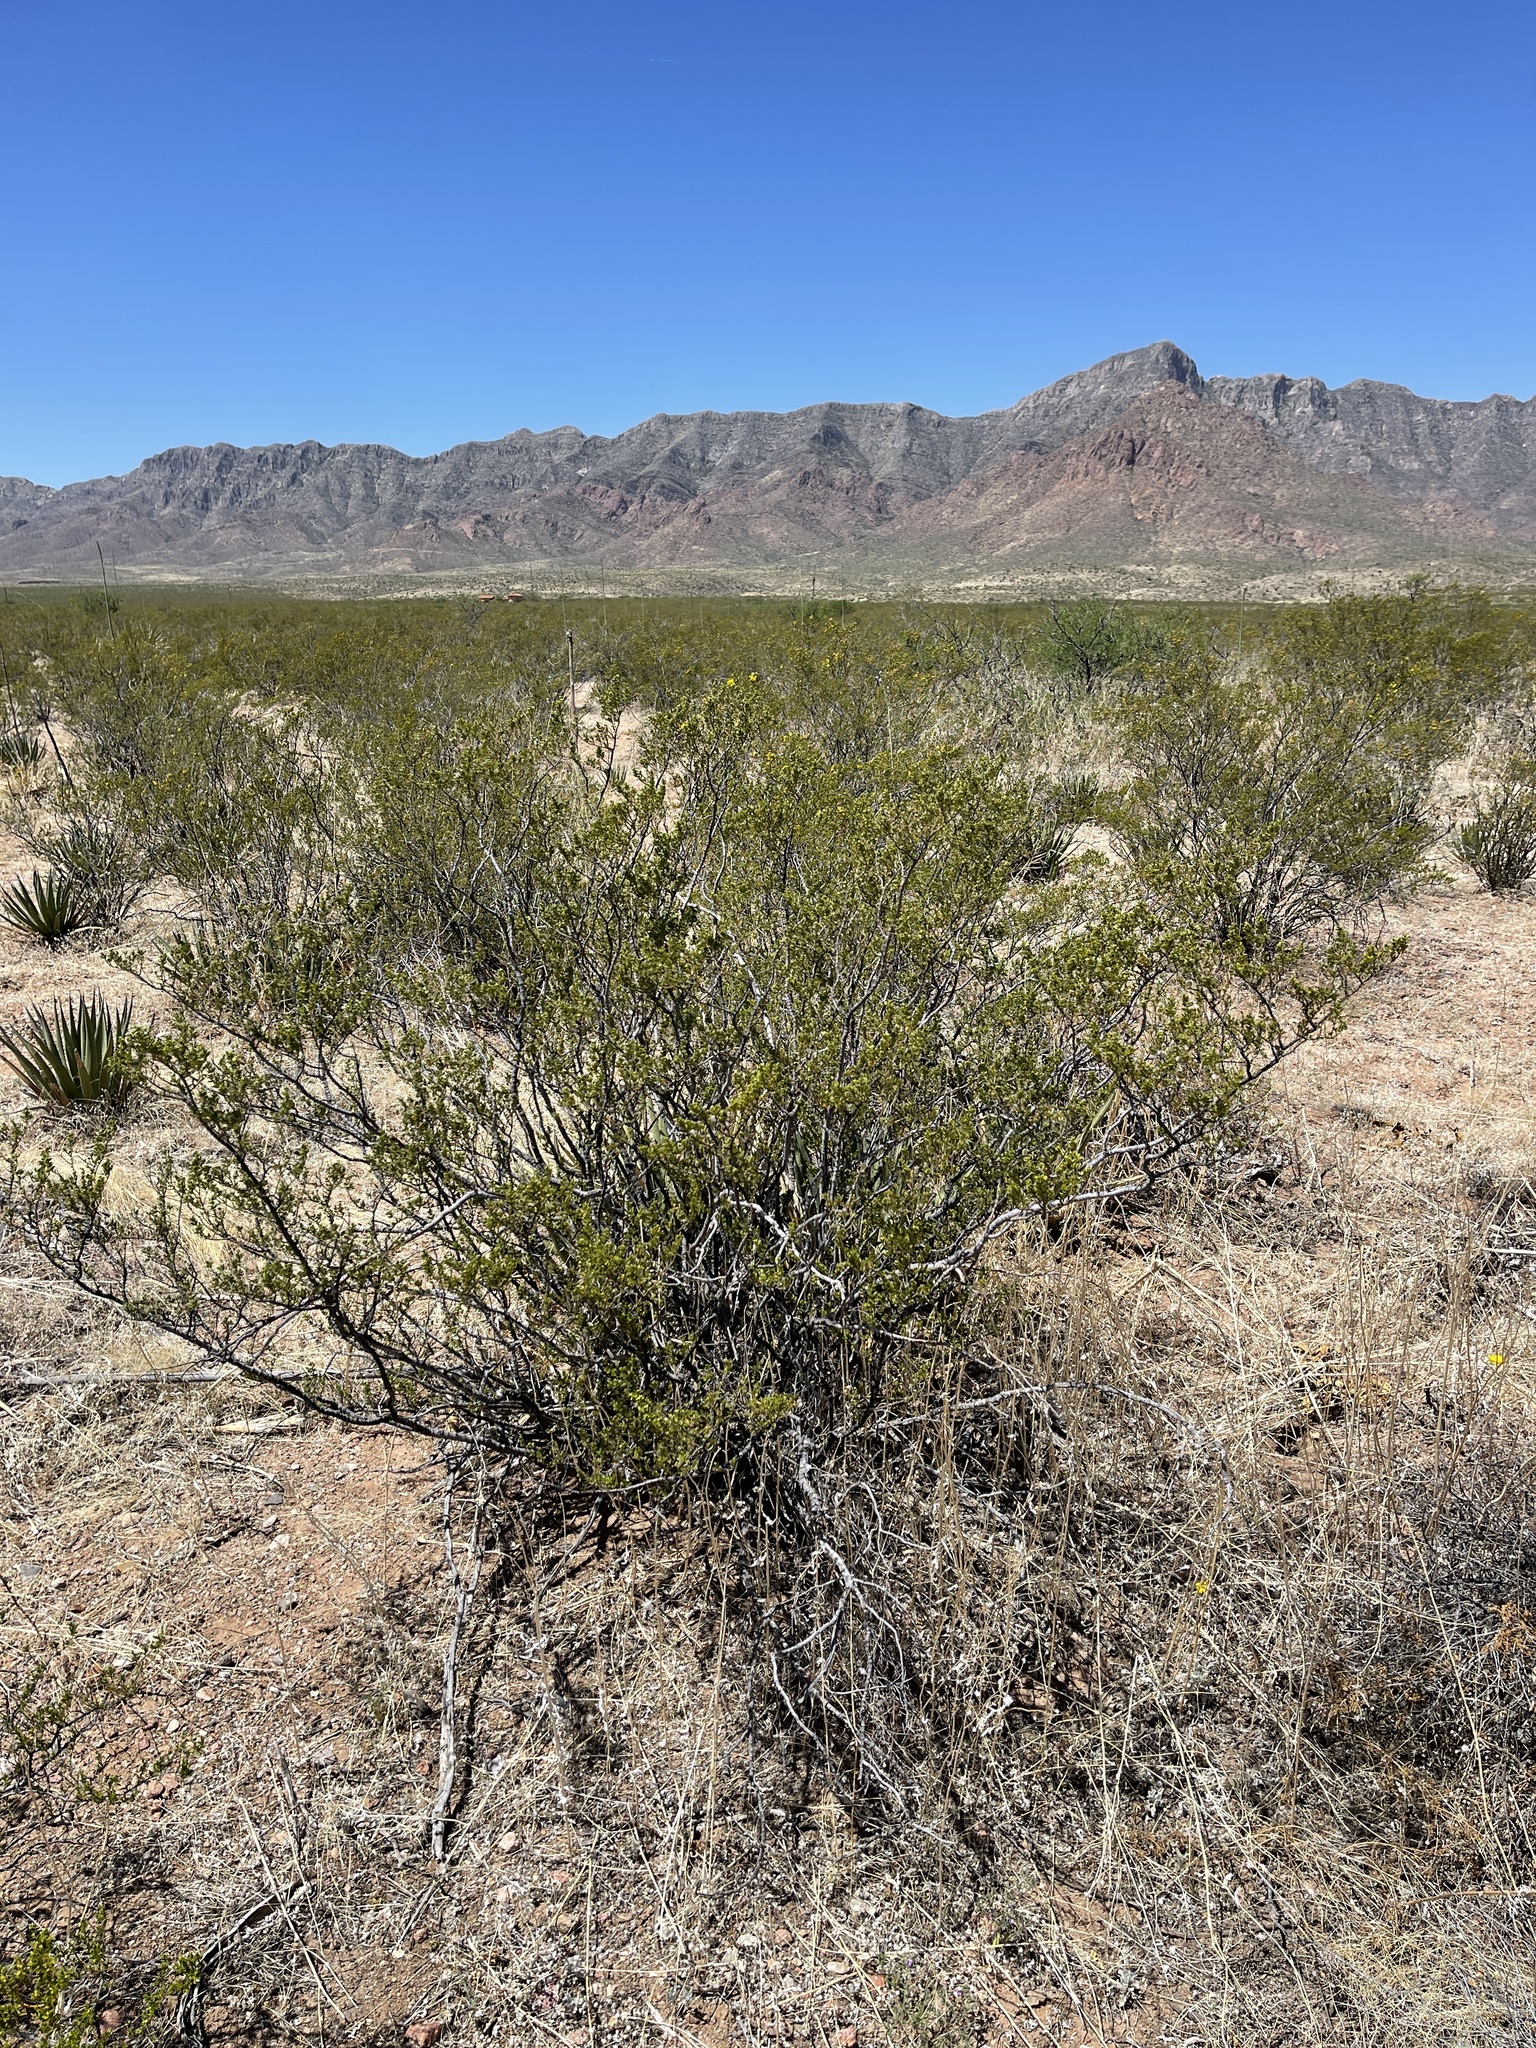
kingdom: Plantae
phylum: Tracheophyta
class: Magnoliopsida
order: Zygophyllales
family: Zygophyllaceae
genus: Larrea
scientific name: Larrea tridentata
